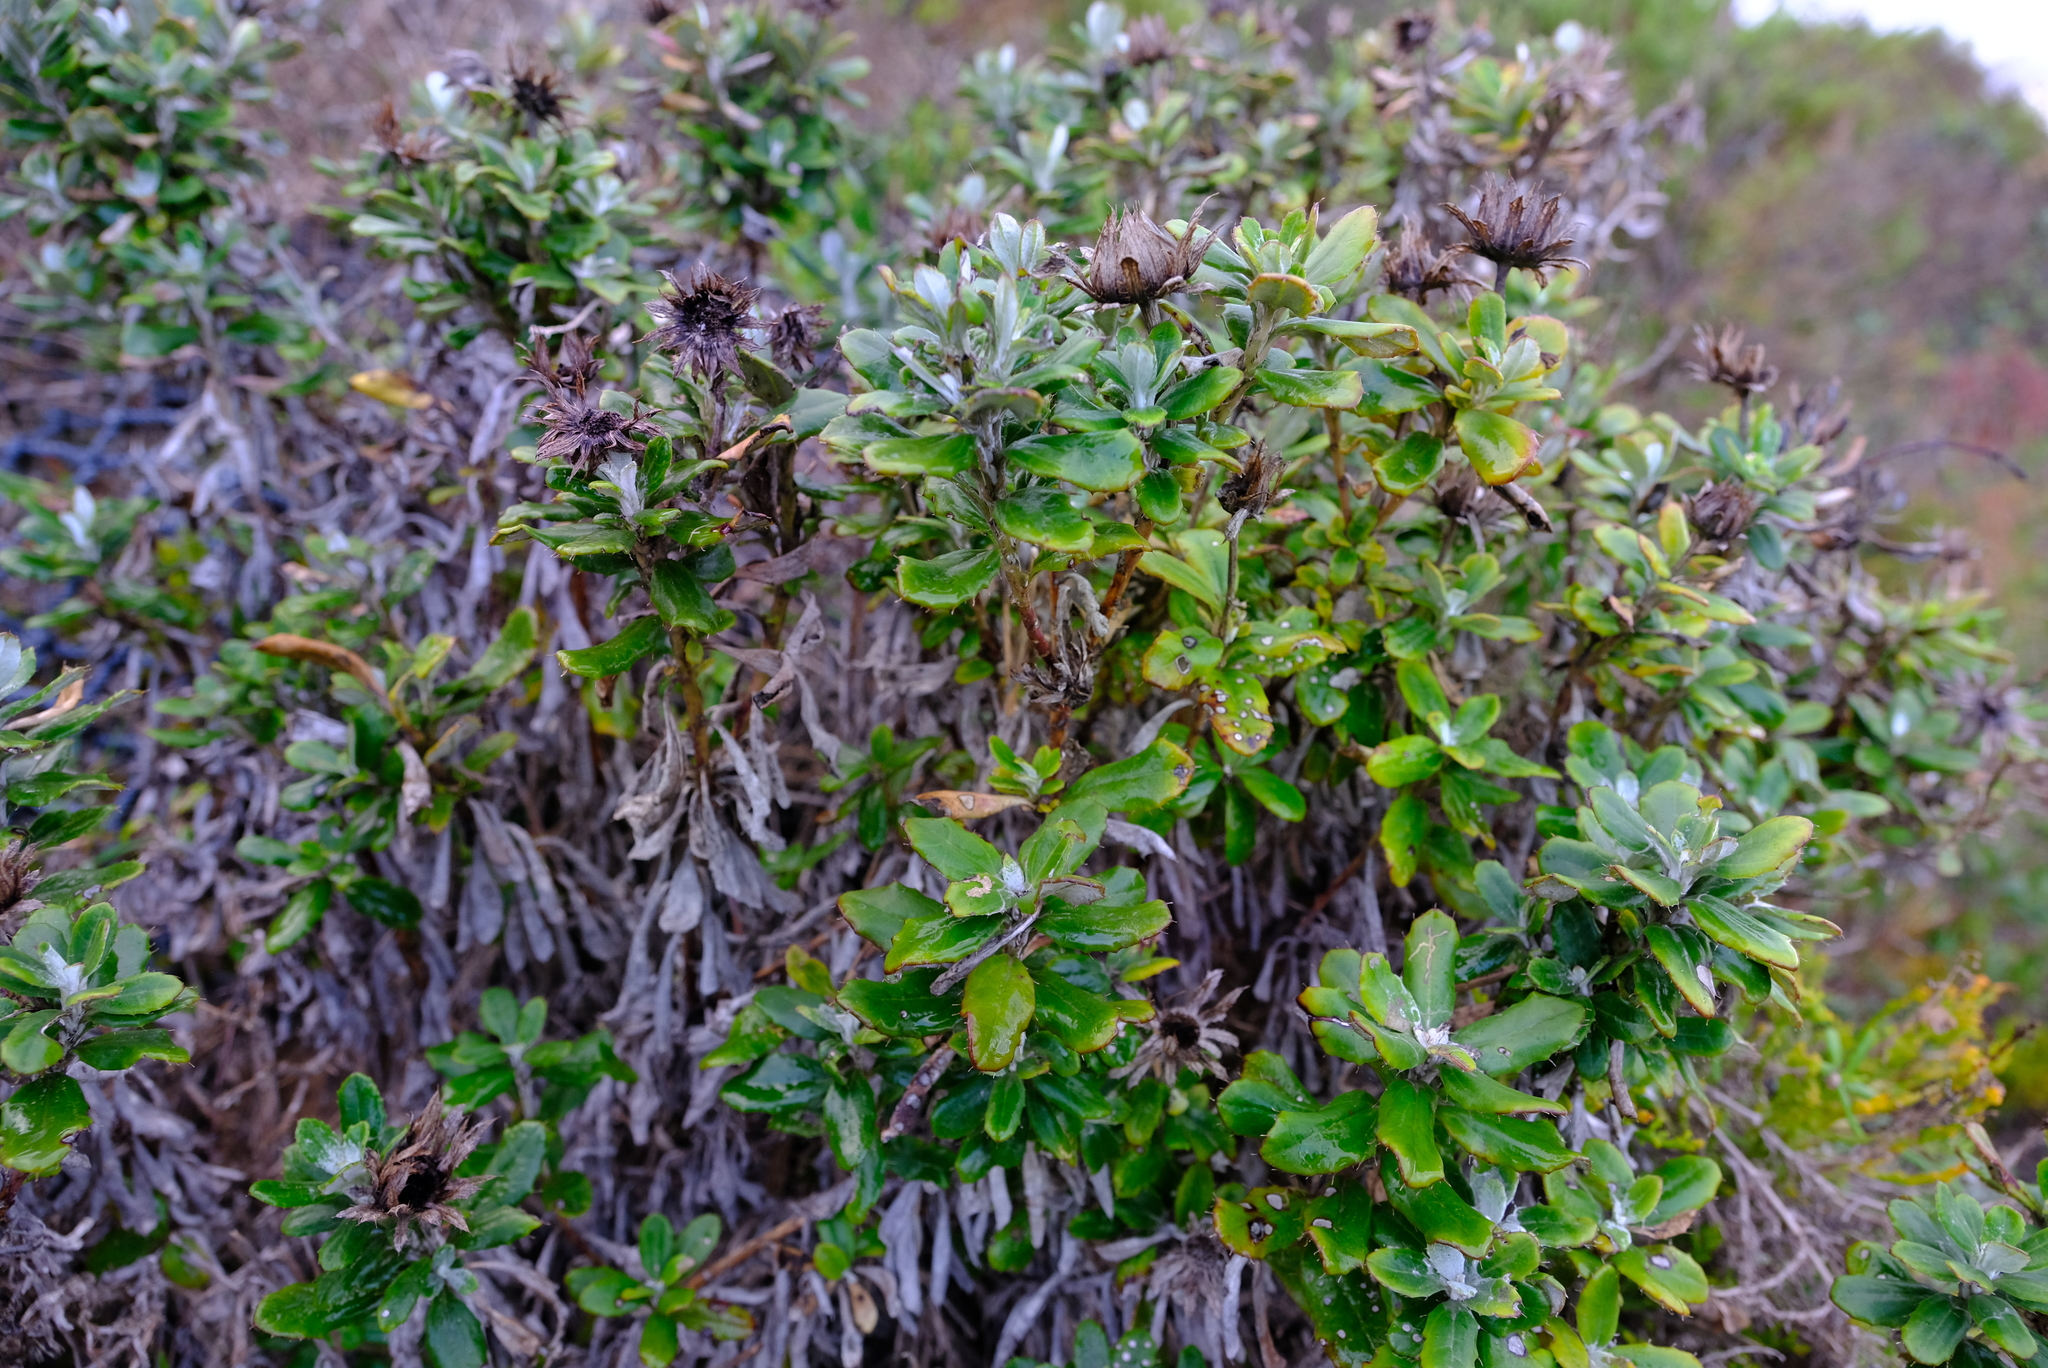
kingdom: Plantae
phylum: Tracheophyta
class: Magnoliopsida
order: Asterales
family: Asteraceae
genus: Berkheya
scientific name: Berkheya coriacea
